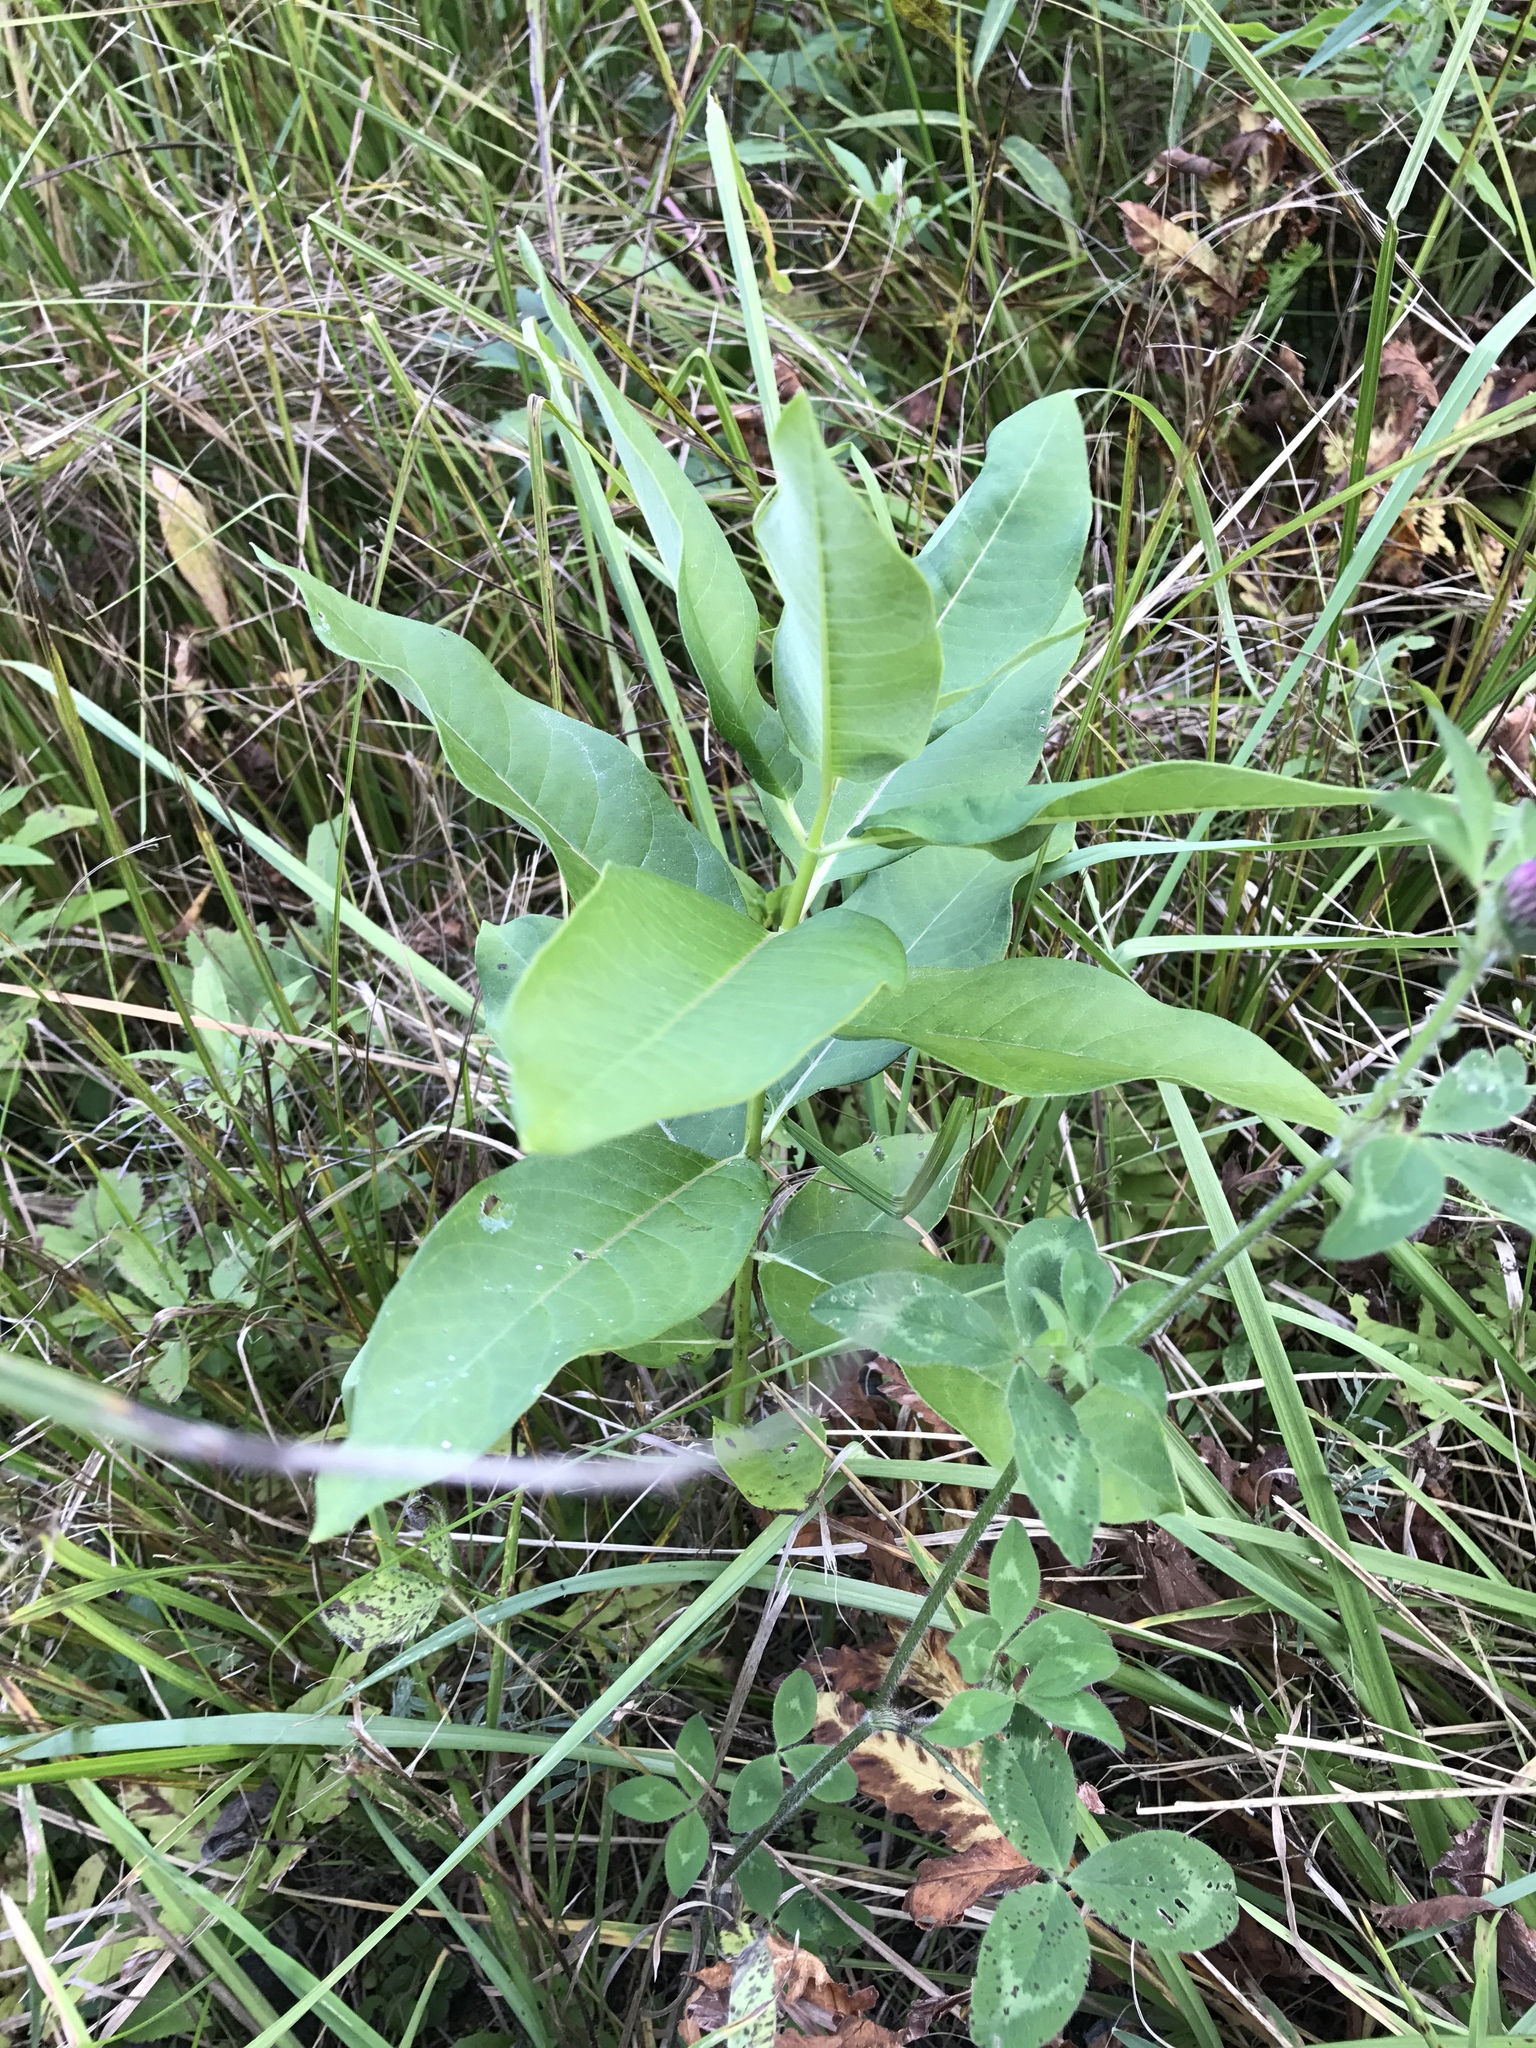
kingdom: Plantae
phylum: Tracheophyta
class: Magnoliopsida
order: Gentianales
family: Apocynaceae
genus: Asclepias
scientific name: Asclepias syriaca
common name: Common milkweed
